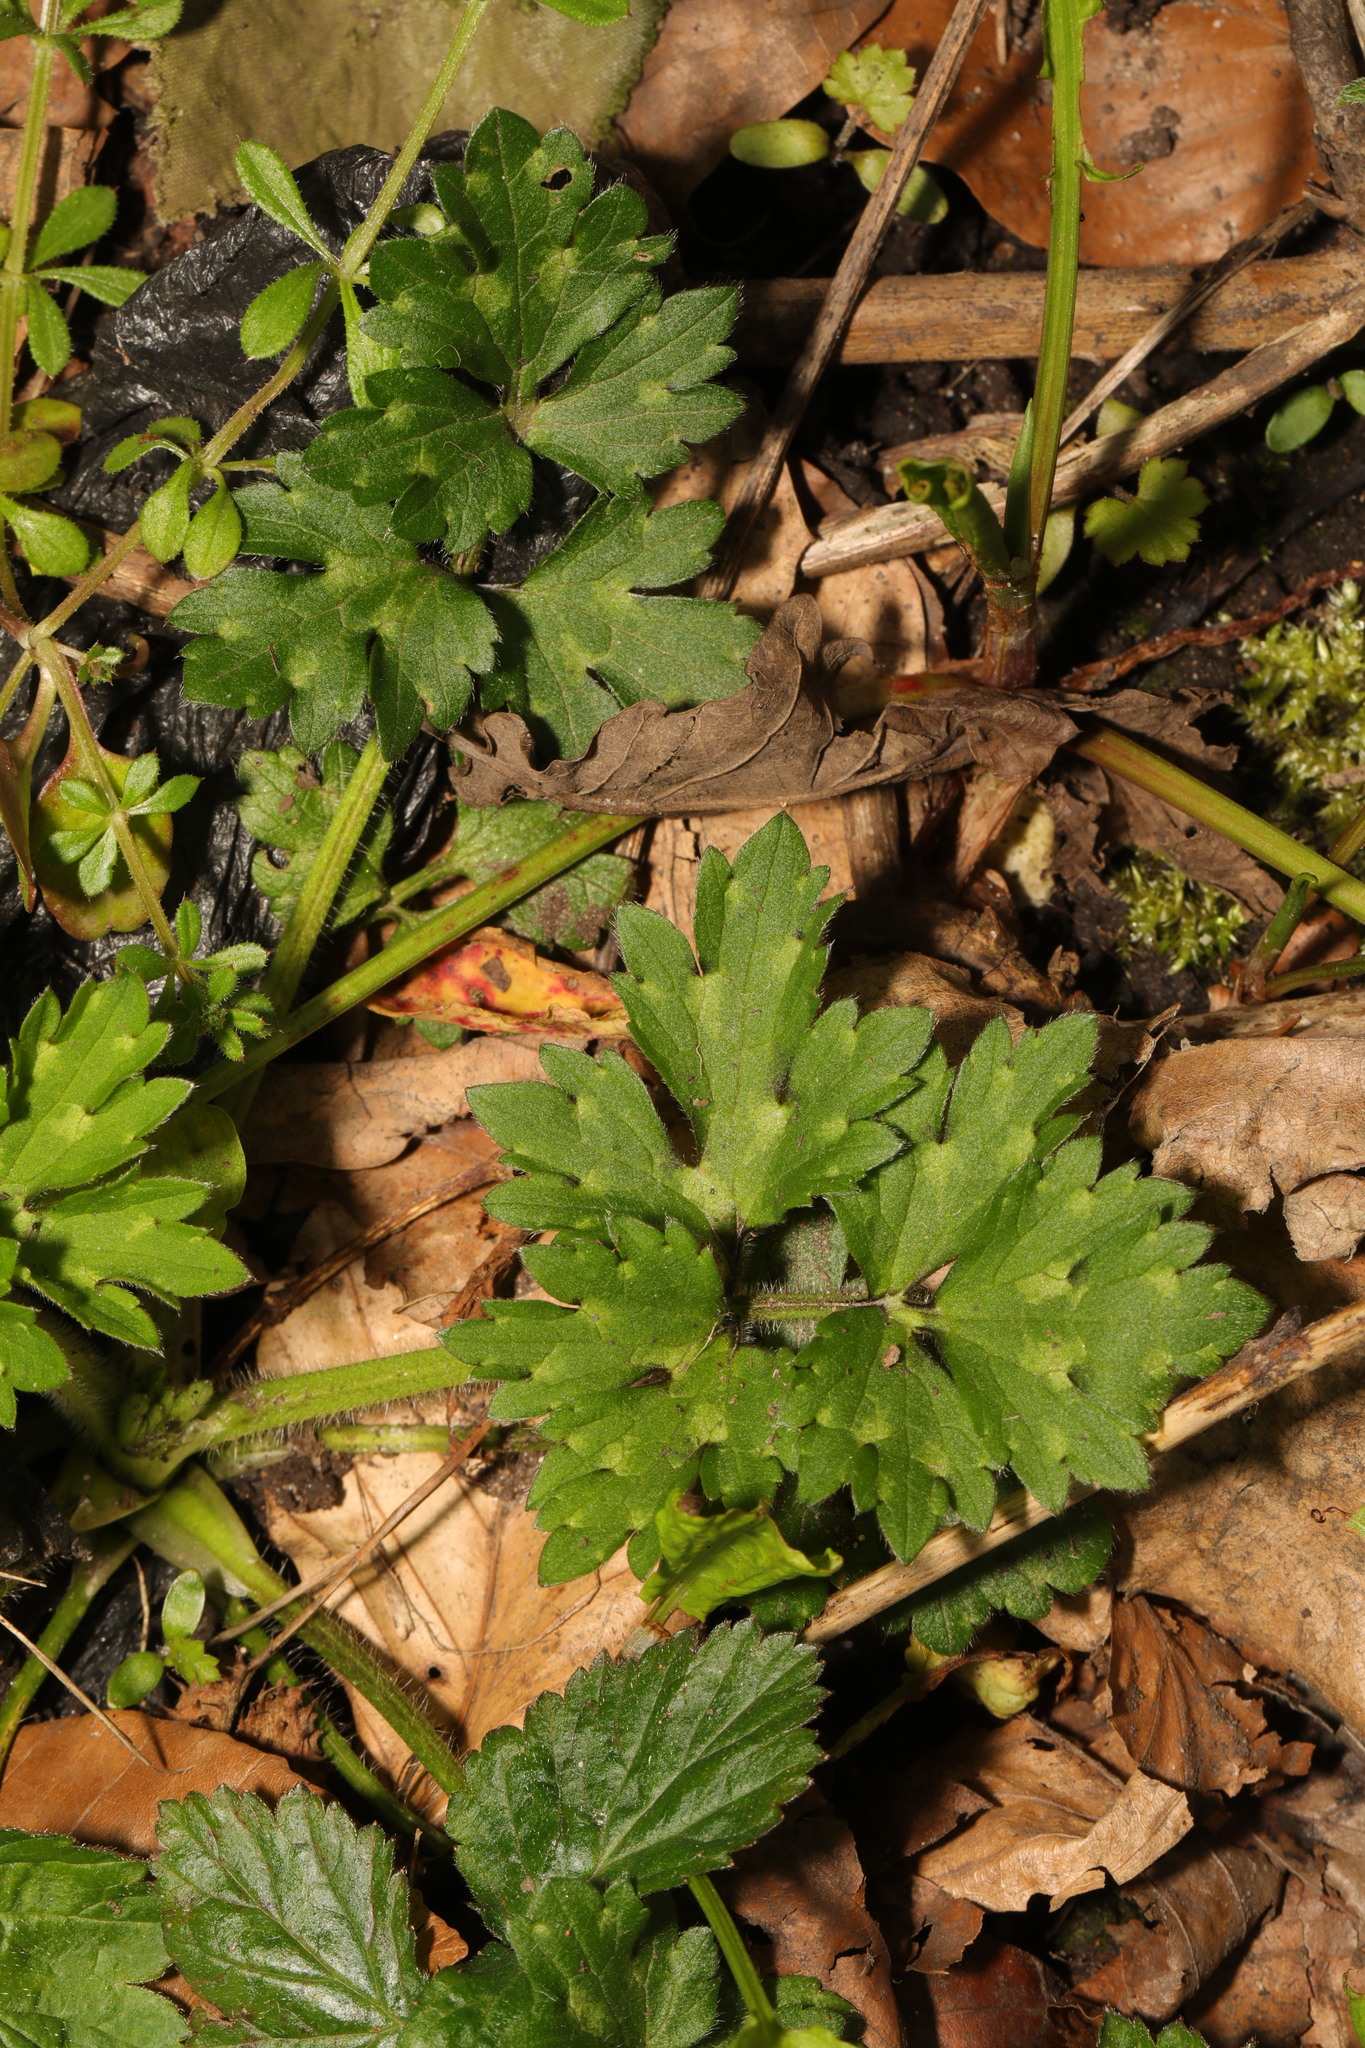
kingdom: Plantae
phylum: Tracheophyta
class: Magnoliopsida
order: Ranunculales
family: Ranunculaceae
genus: Ranunculus
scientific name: Ranunculus repens
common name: Creeping buttercup
